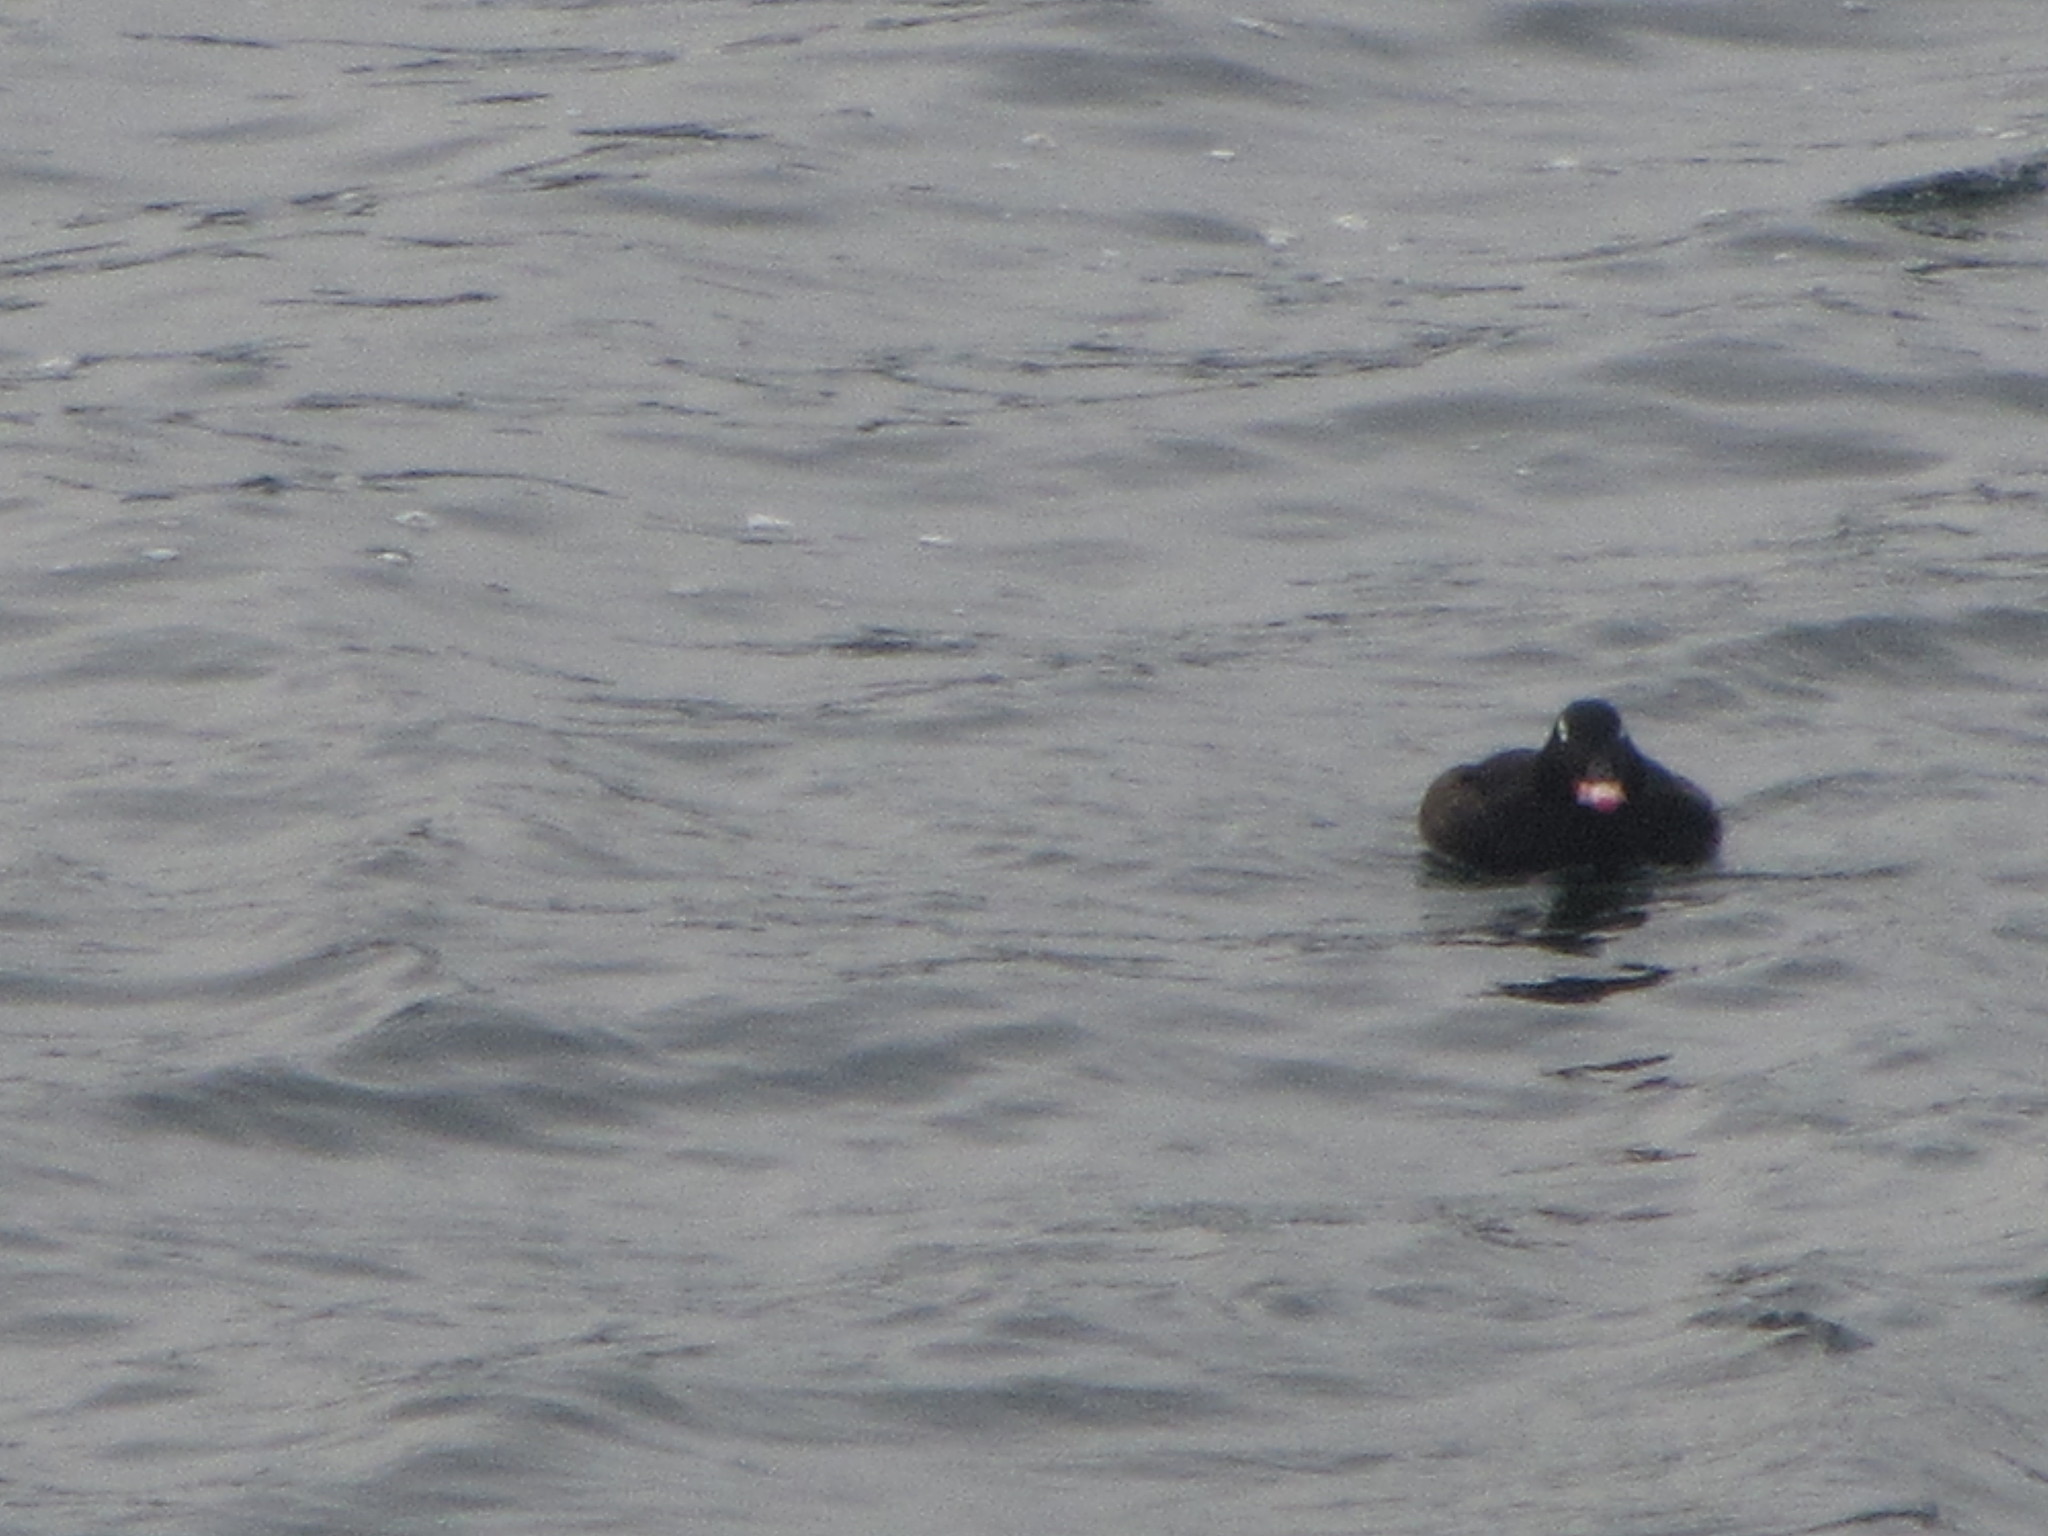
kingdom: Animalia
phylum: Chordata
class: Aves
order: Anseriformes
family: Anatidae
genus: Melanitta
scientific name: Melanitta deglandi
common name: White-winged scoter
